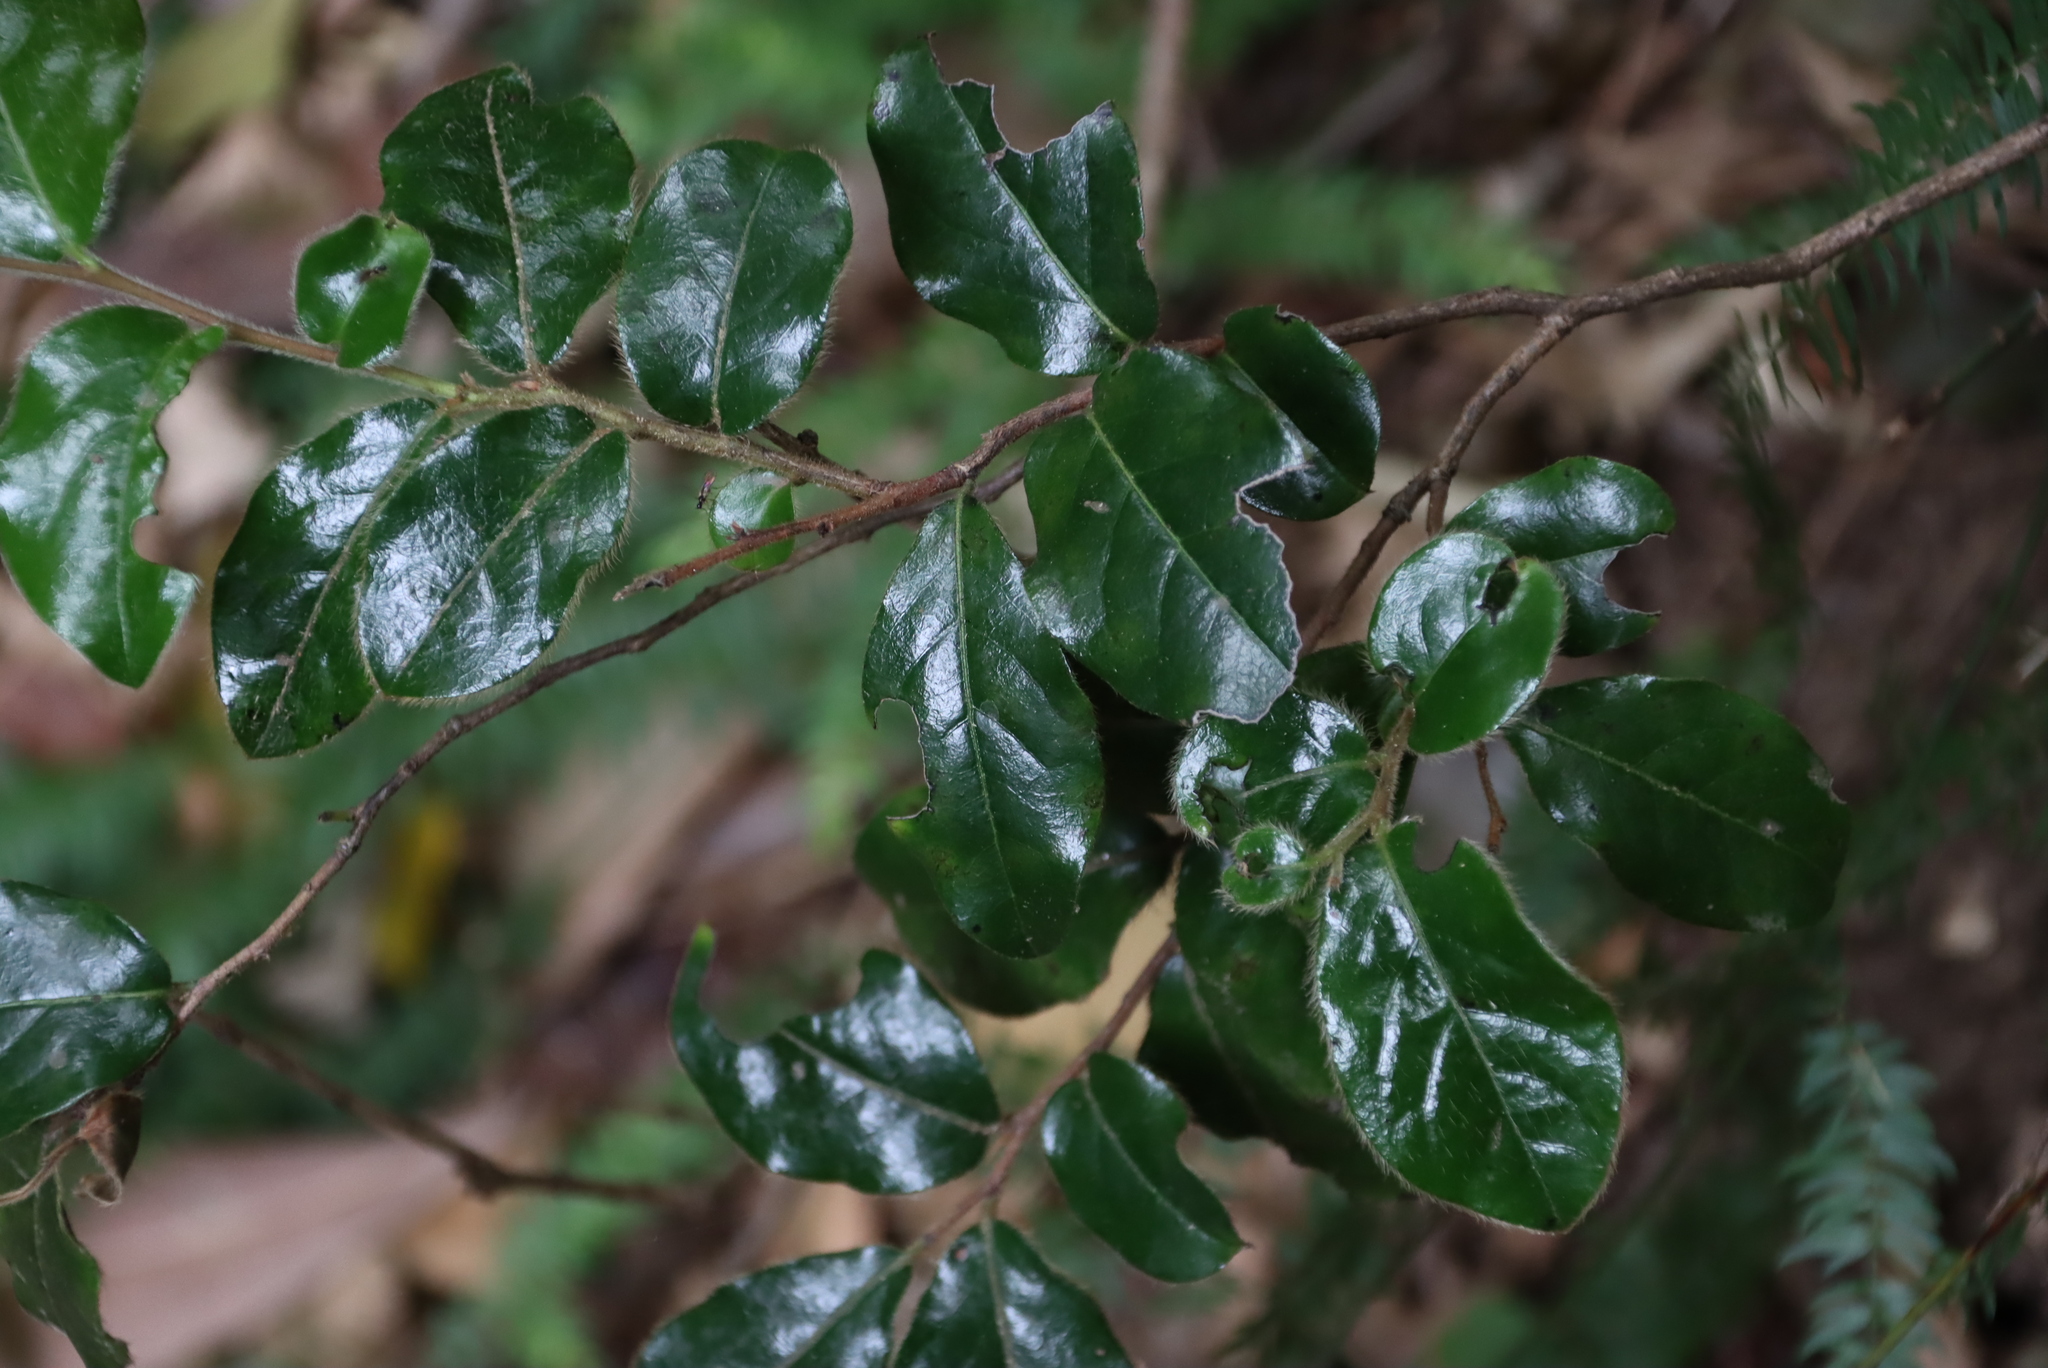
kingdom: Plantae
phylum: Tracheophyta
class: Magnoliopsida
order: Ericales
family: Ebenaceae
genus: Diospyros
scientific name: Diospyros whyteana
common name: Bladder-nut
